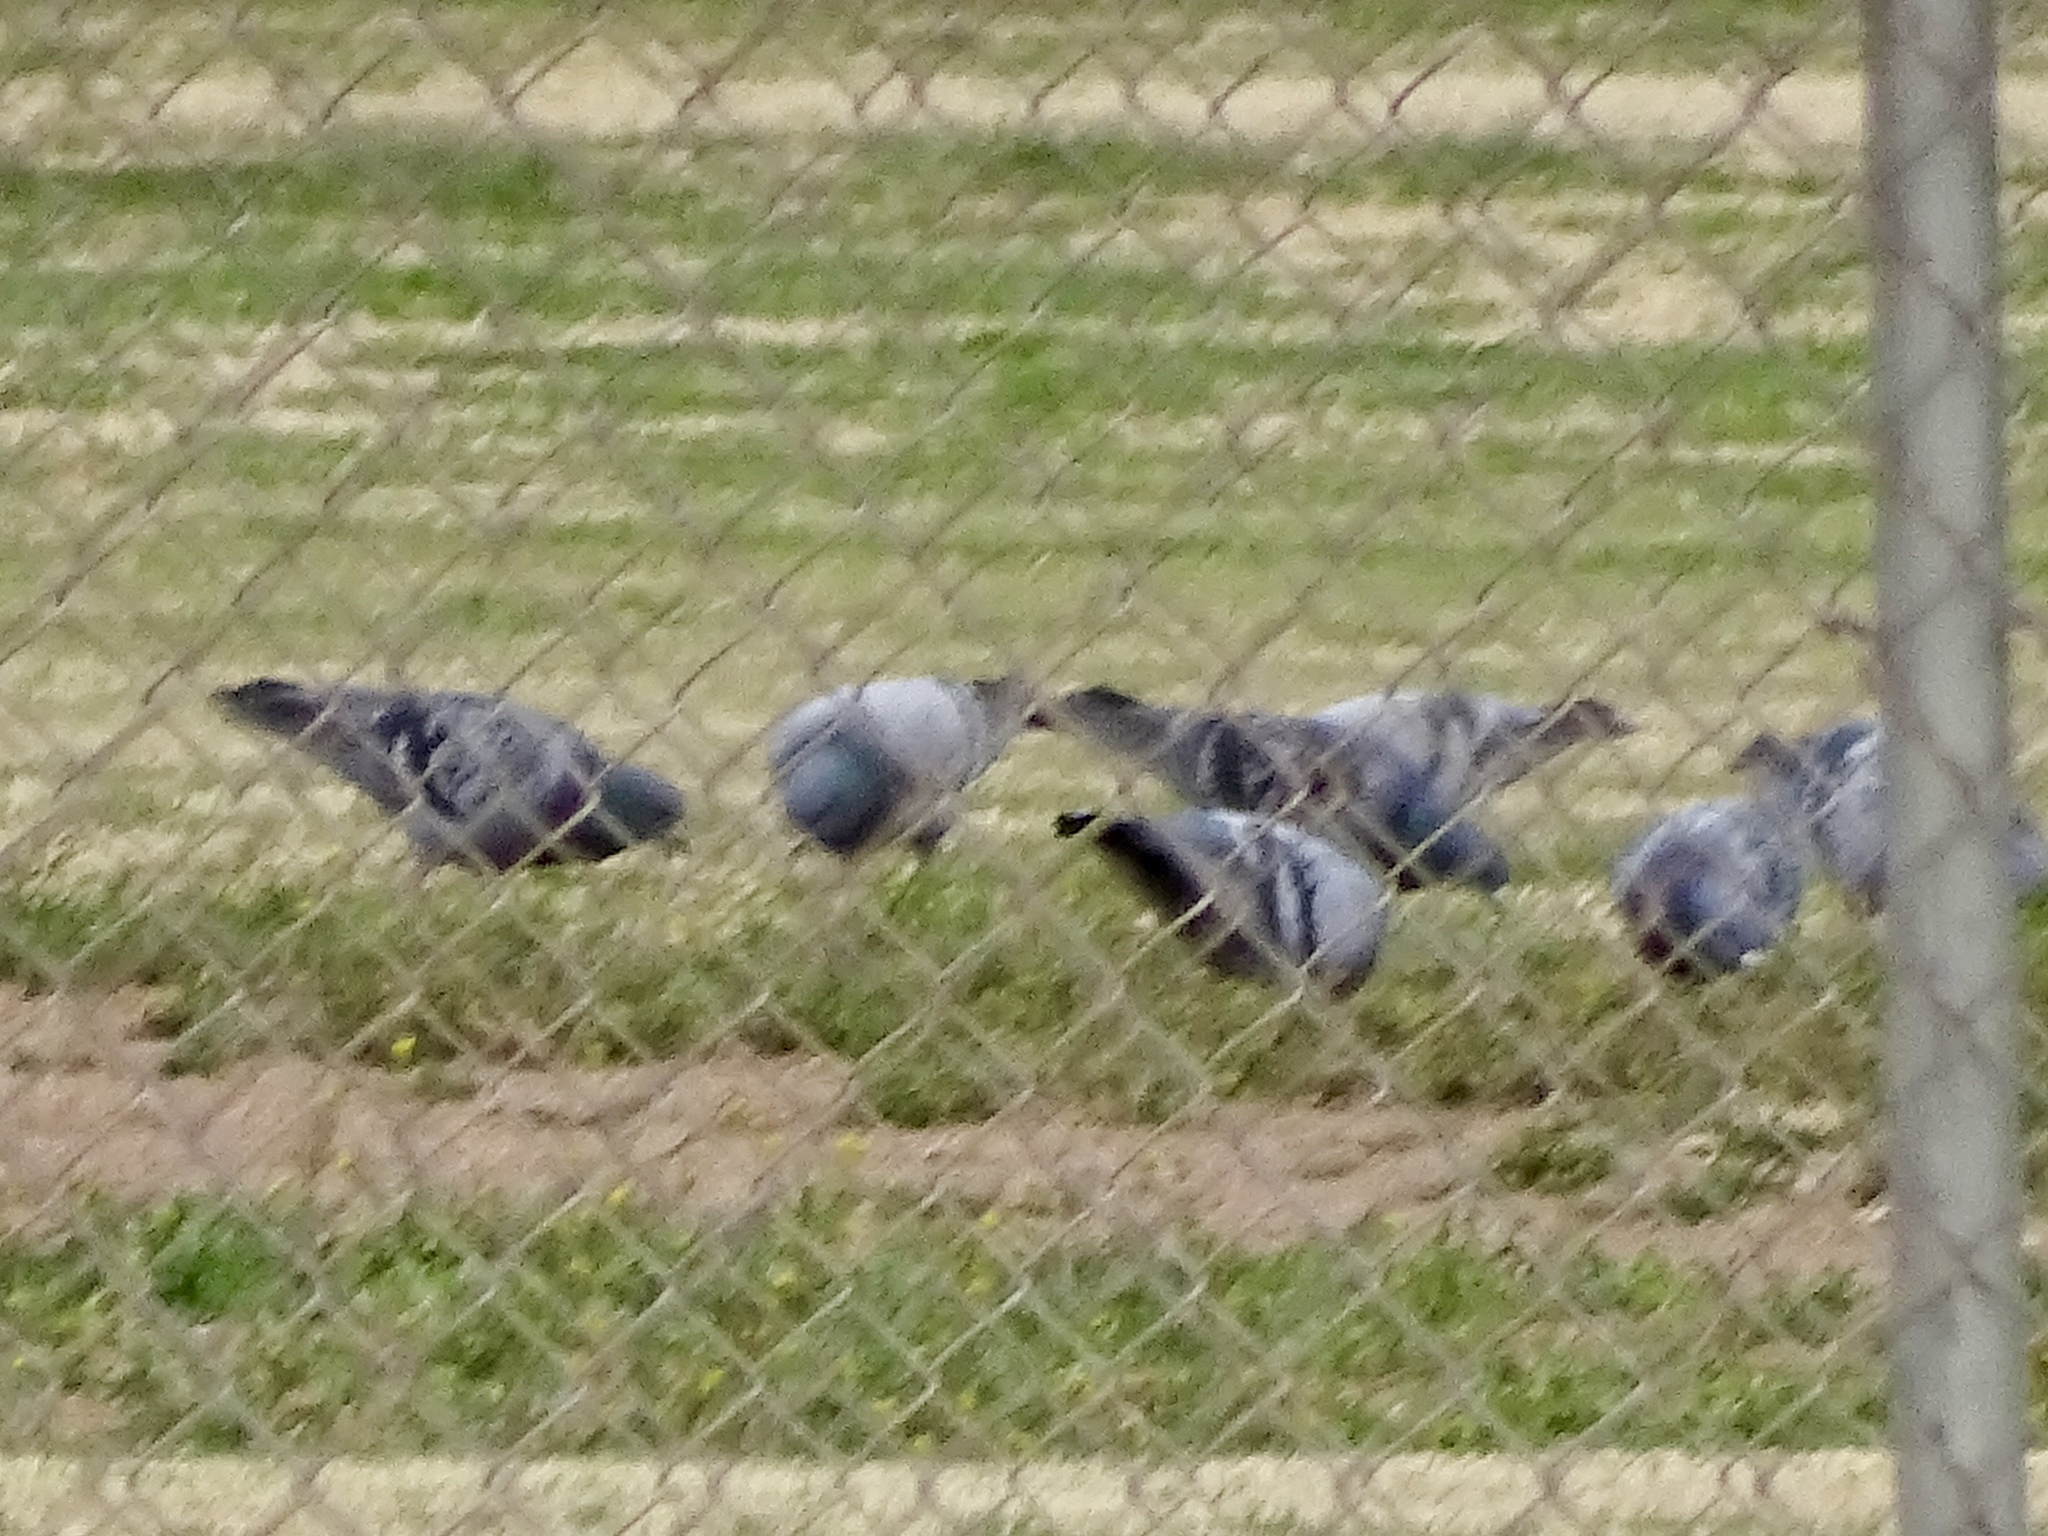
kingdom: Animalia
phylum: Chordata
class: Aves
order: Columbiformes
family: Columbidae
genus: Columba
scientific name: Columba livia
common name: Rock pigeon
